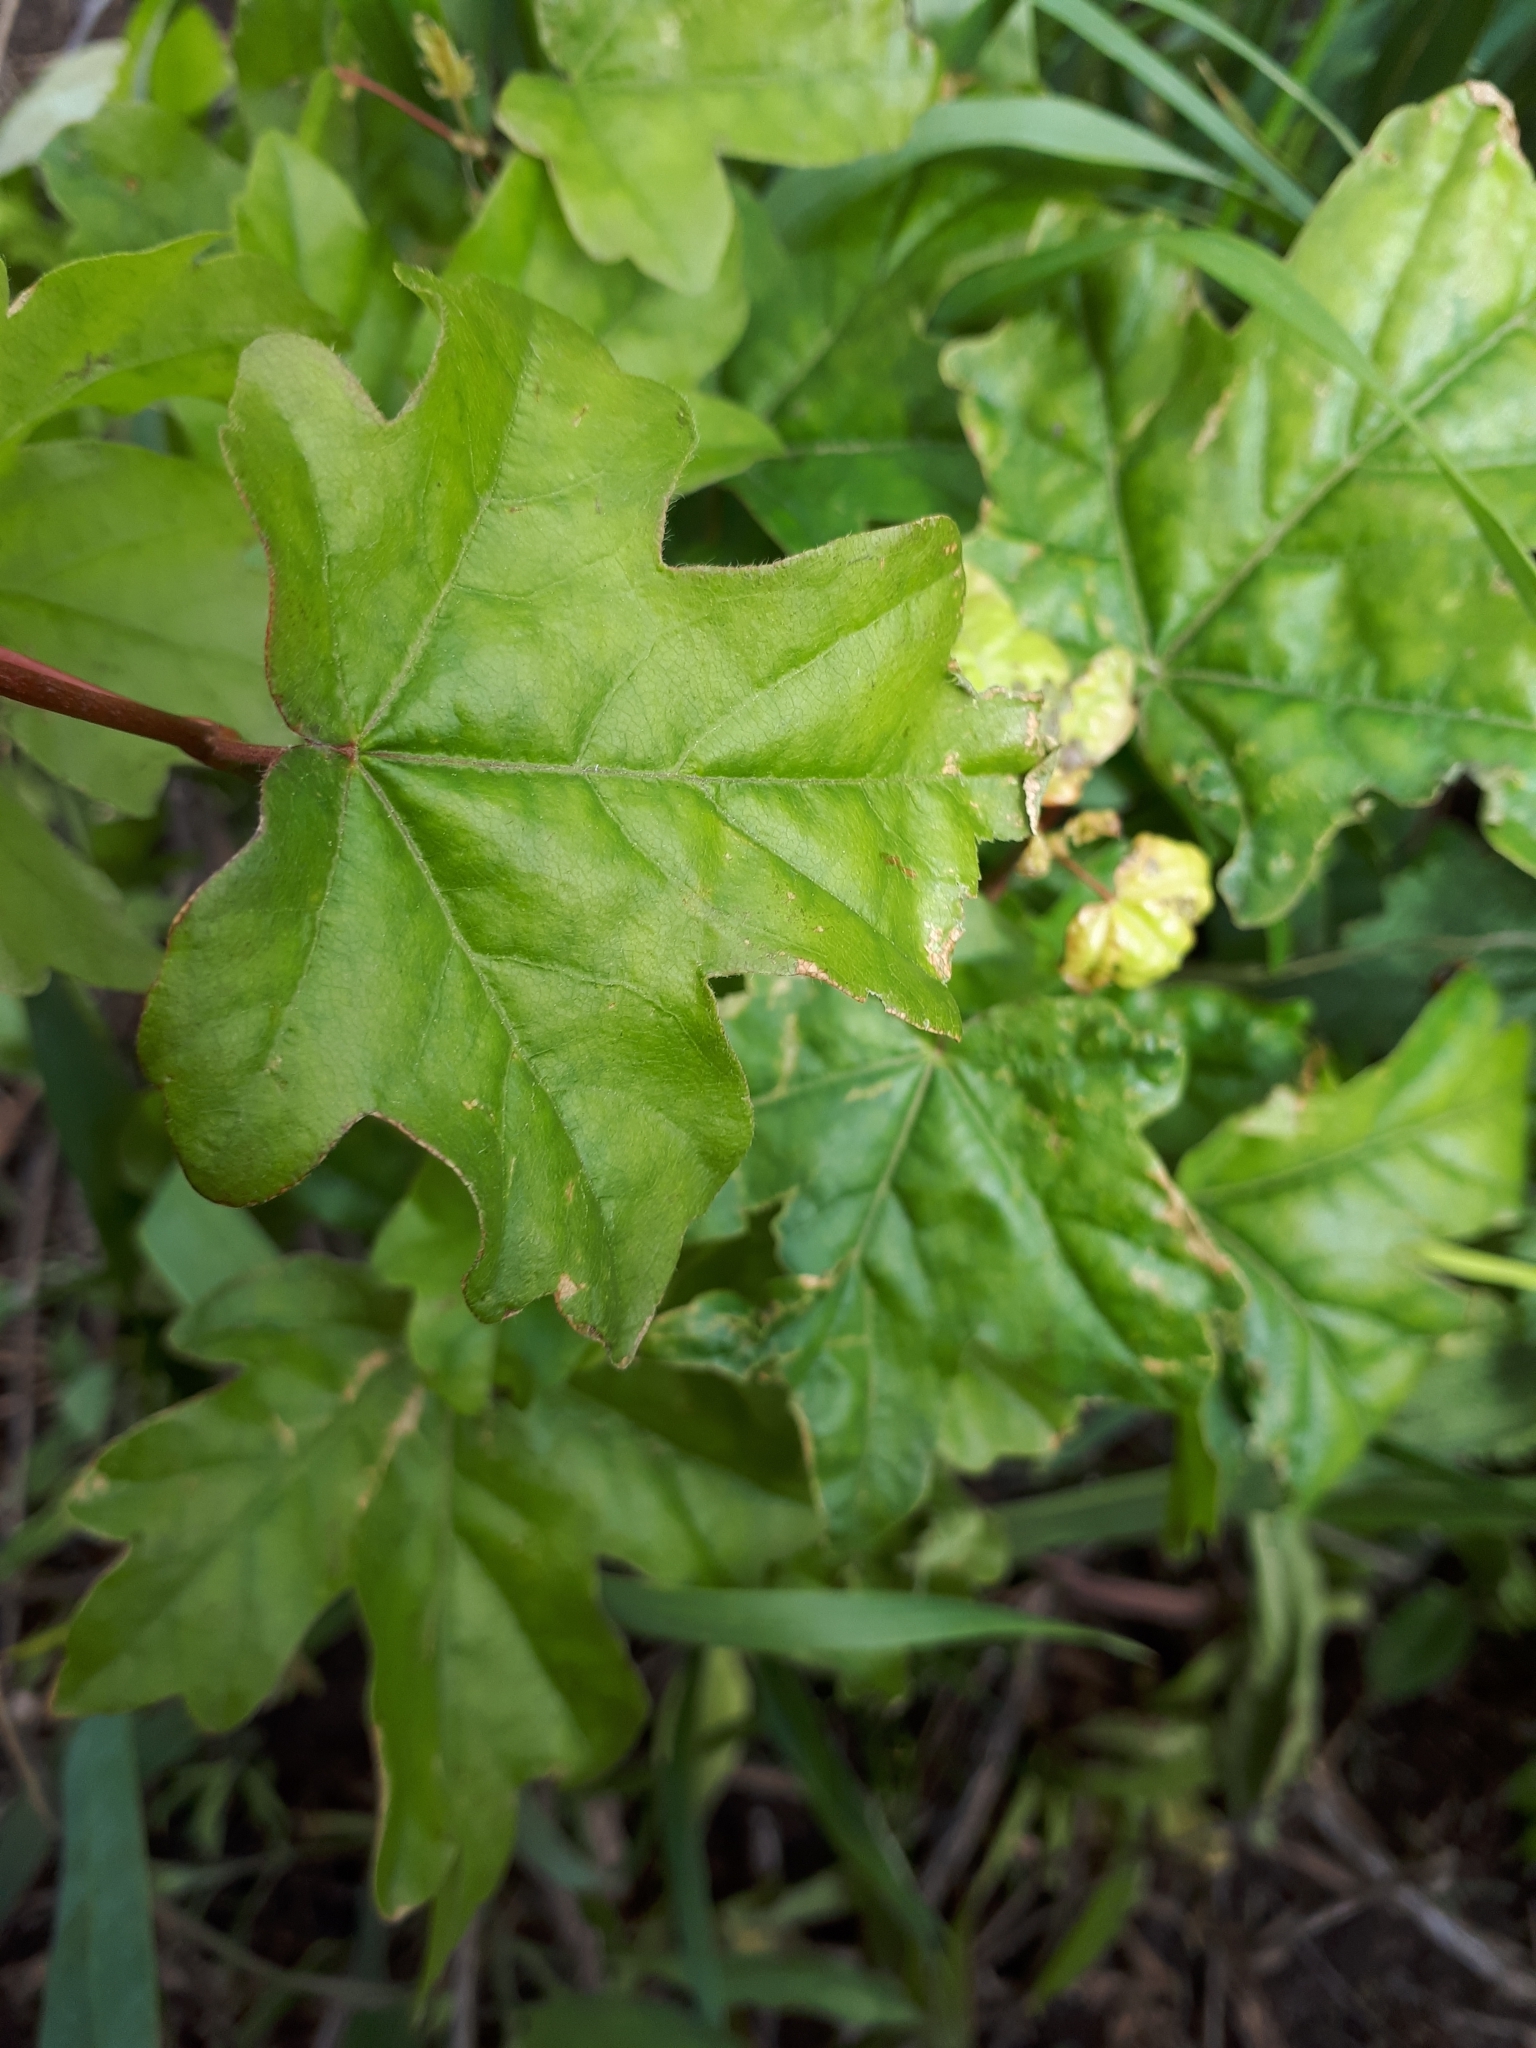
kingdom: Plantae
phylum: Tracheophyta
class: Magnoliopsida
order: Sapindales
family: Sapindaceae
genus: Acer
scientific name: Acer campestre
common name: Field maple
